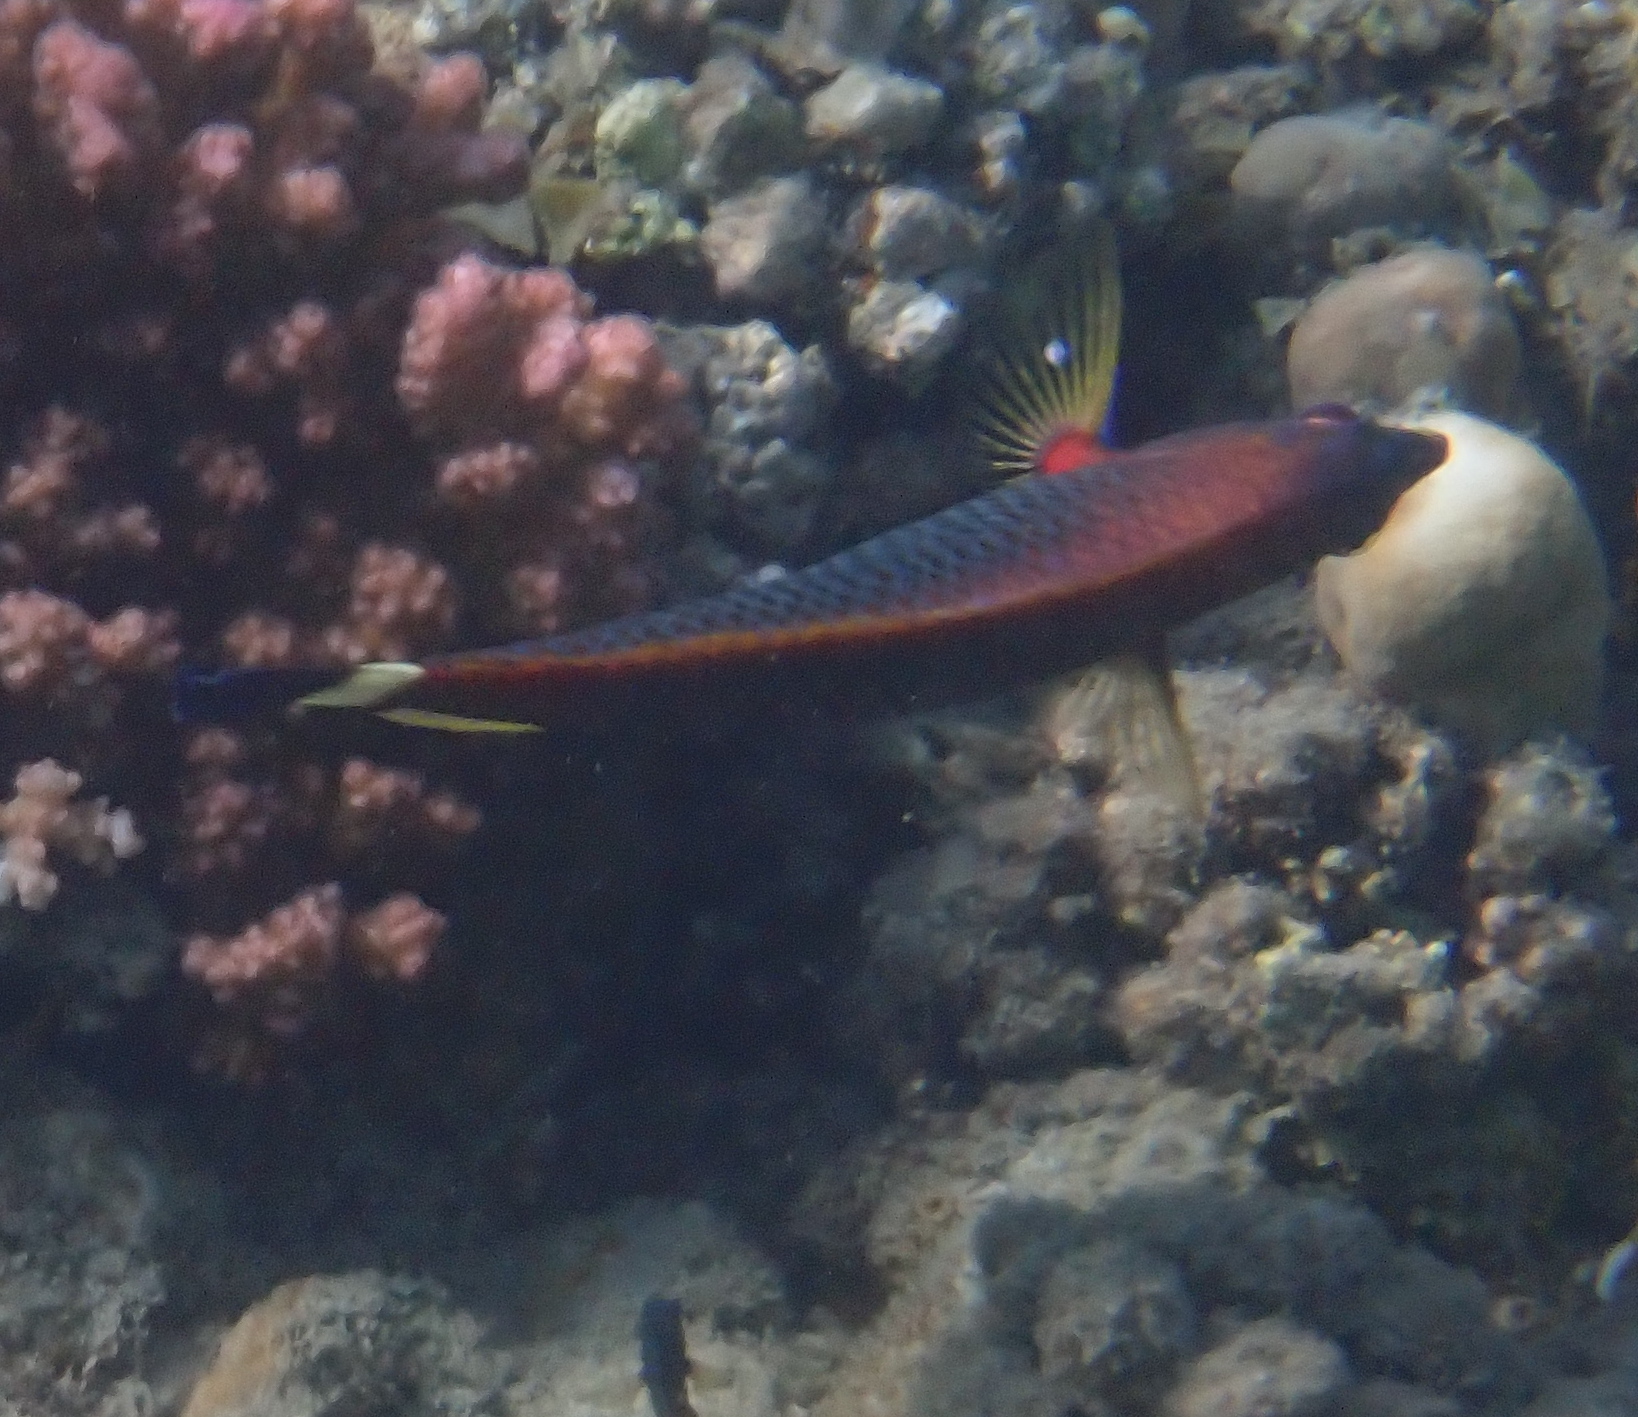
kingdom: Animalia
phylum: Chordata
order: Perciformes
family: Labridae
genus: Pseudodax
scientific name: Pseudodax moluccanus
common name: Chiseltooth wrasse
